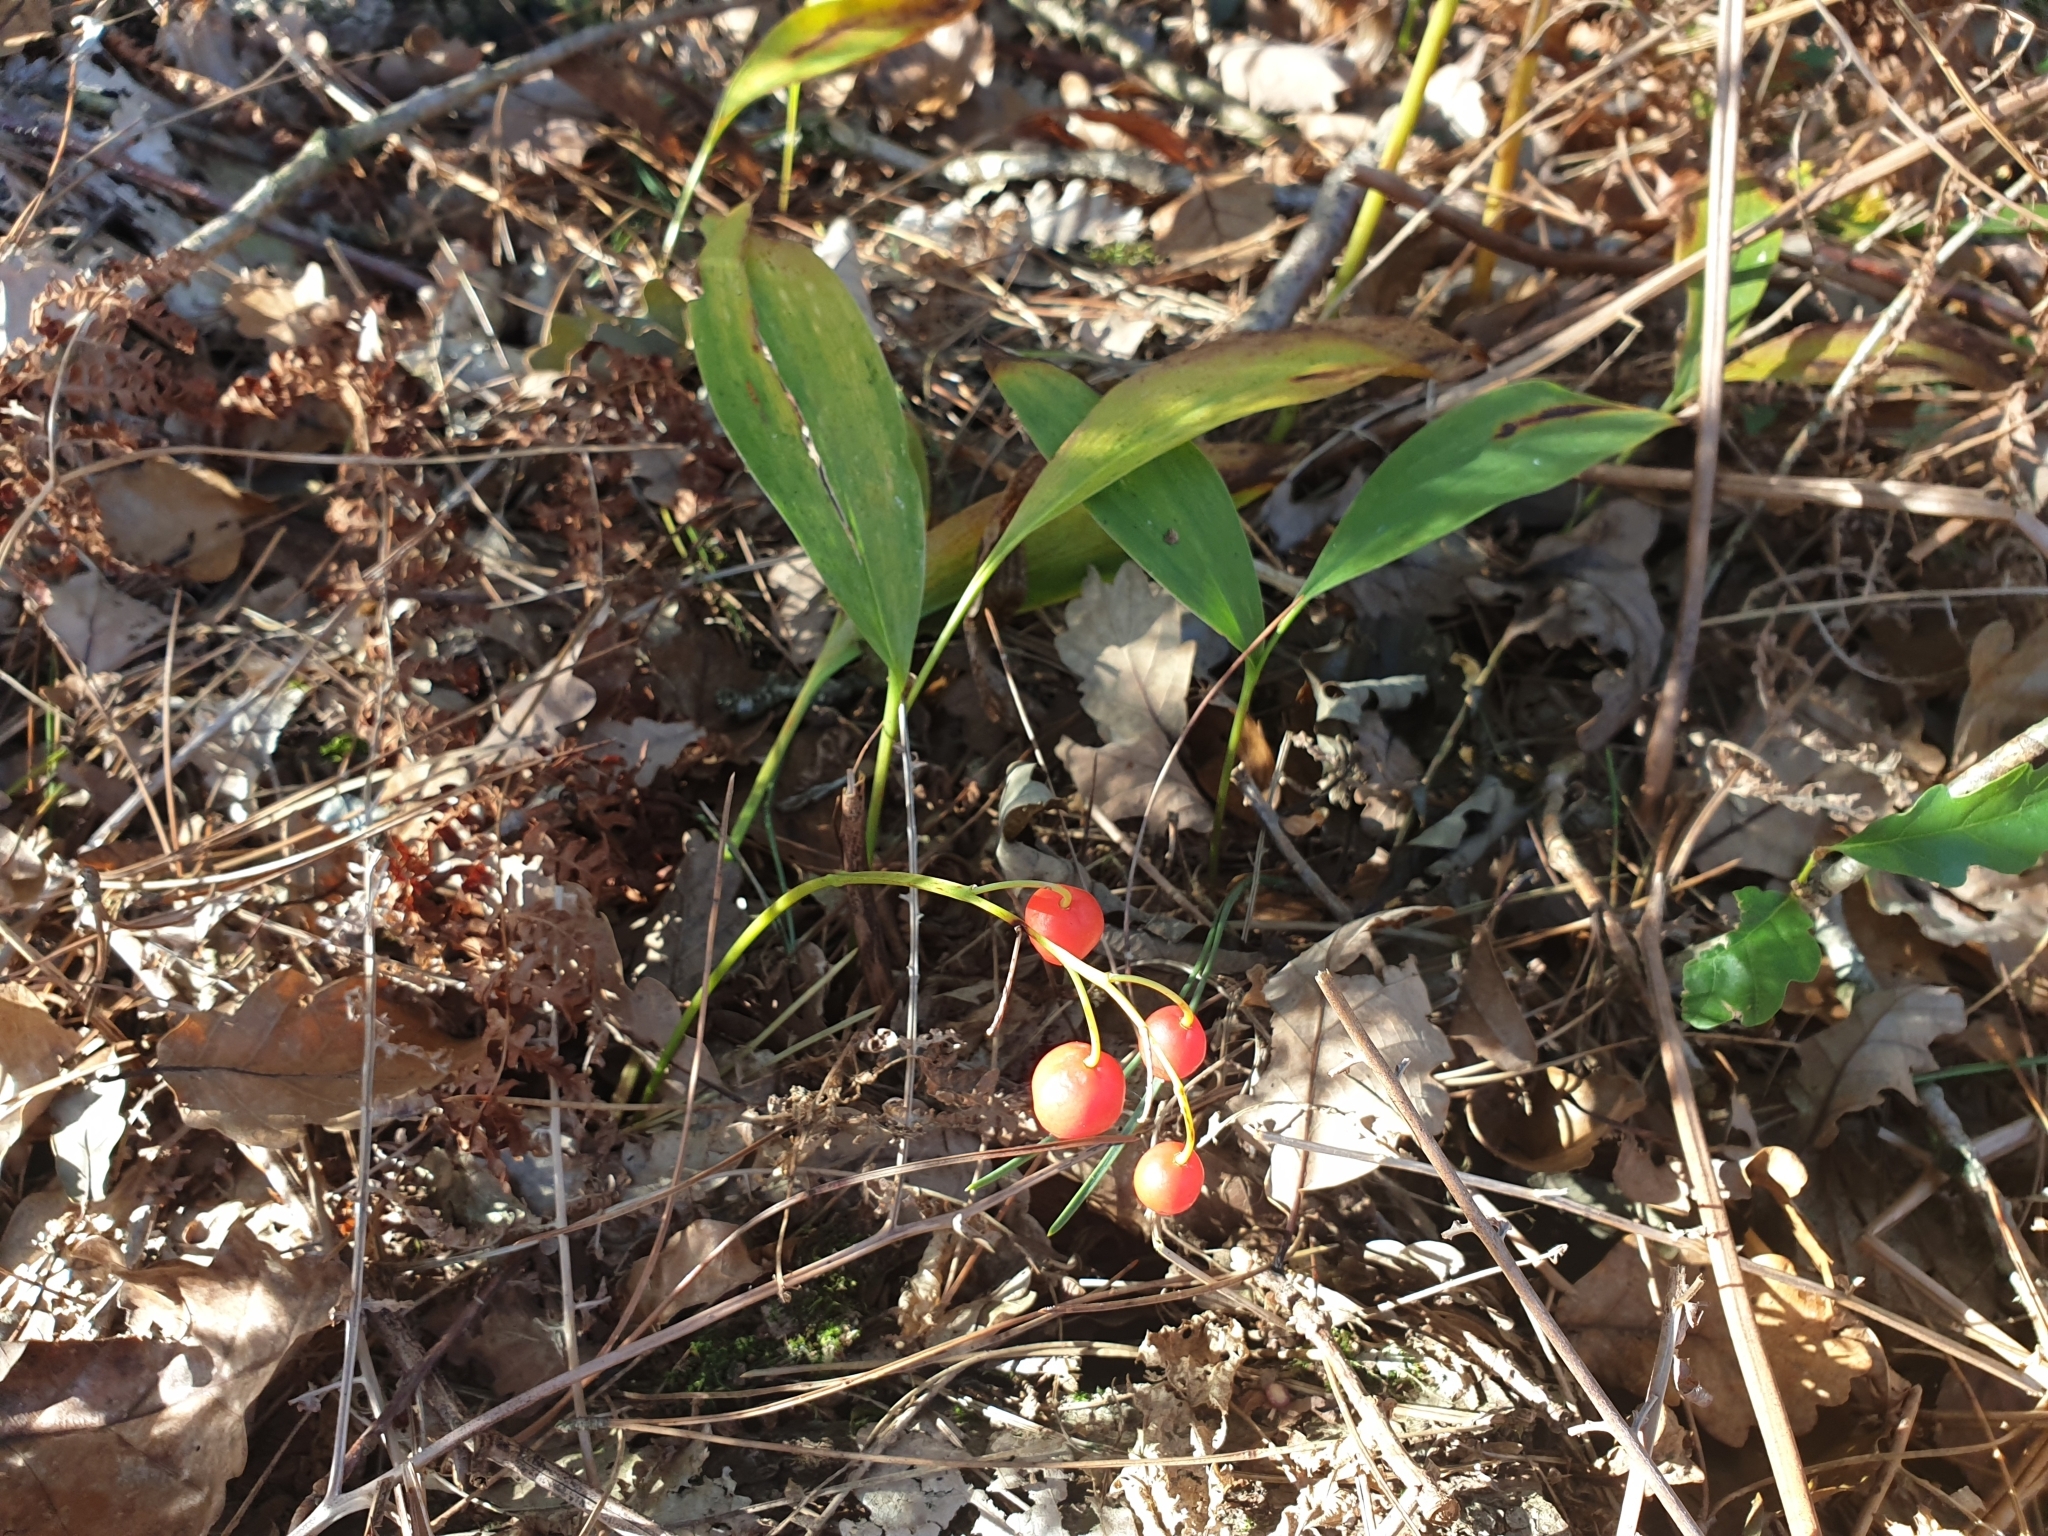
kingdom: Plantae
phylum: Tracheophyta
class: Liliopsida
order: Asparagales
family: Asparagaceae
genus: Convallaria
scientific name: Convallaria majalis
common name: Lily-of-the-valley
